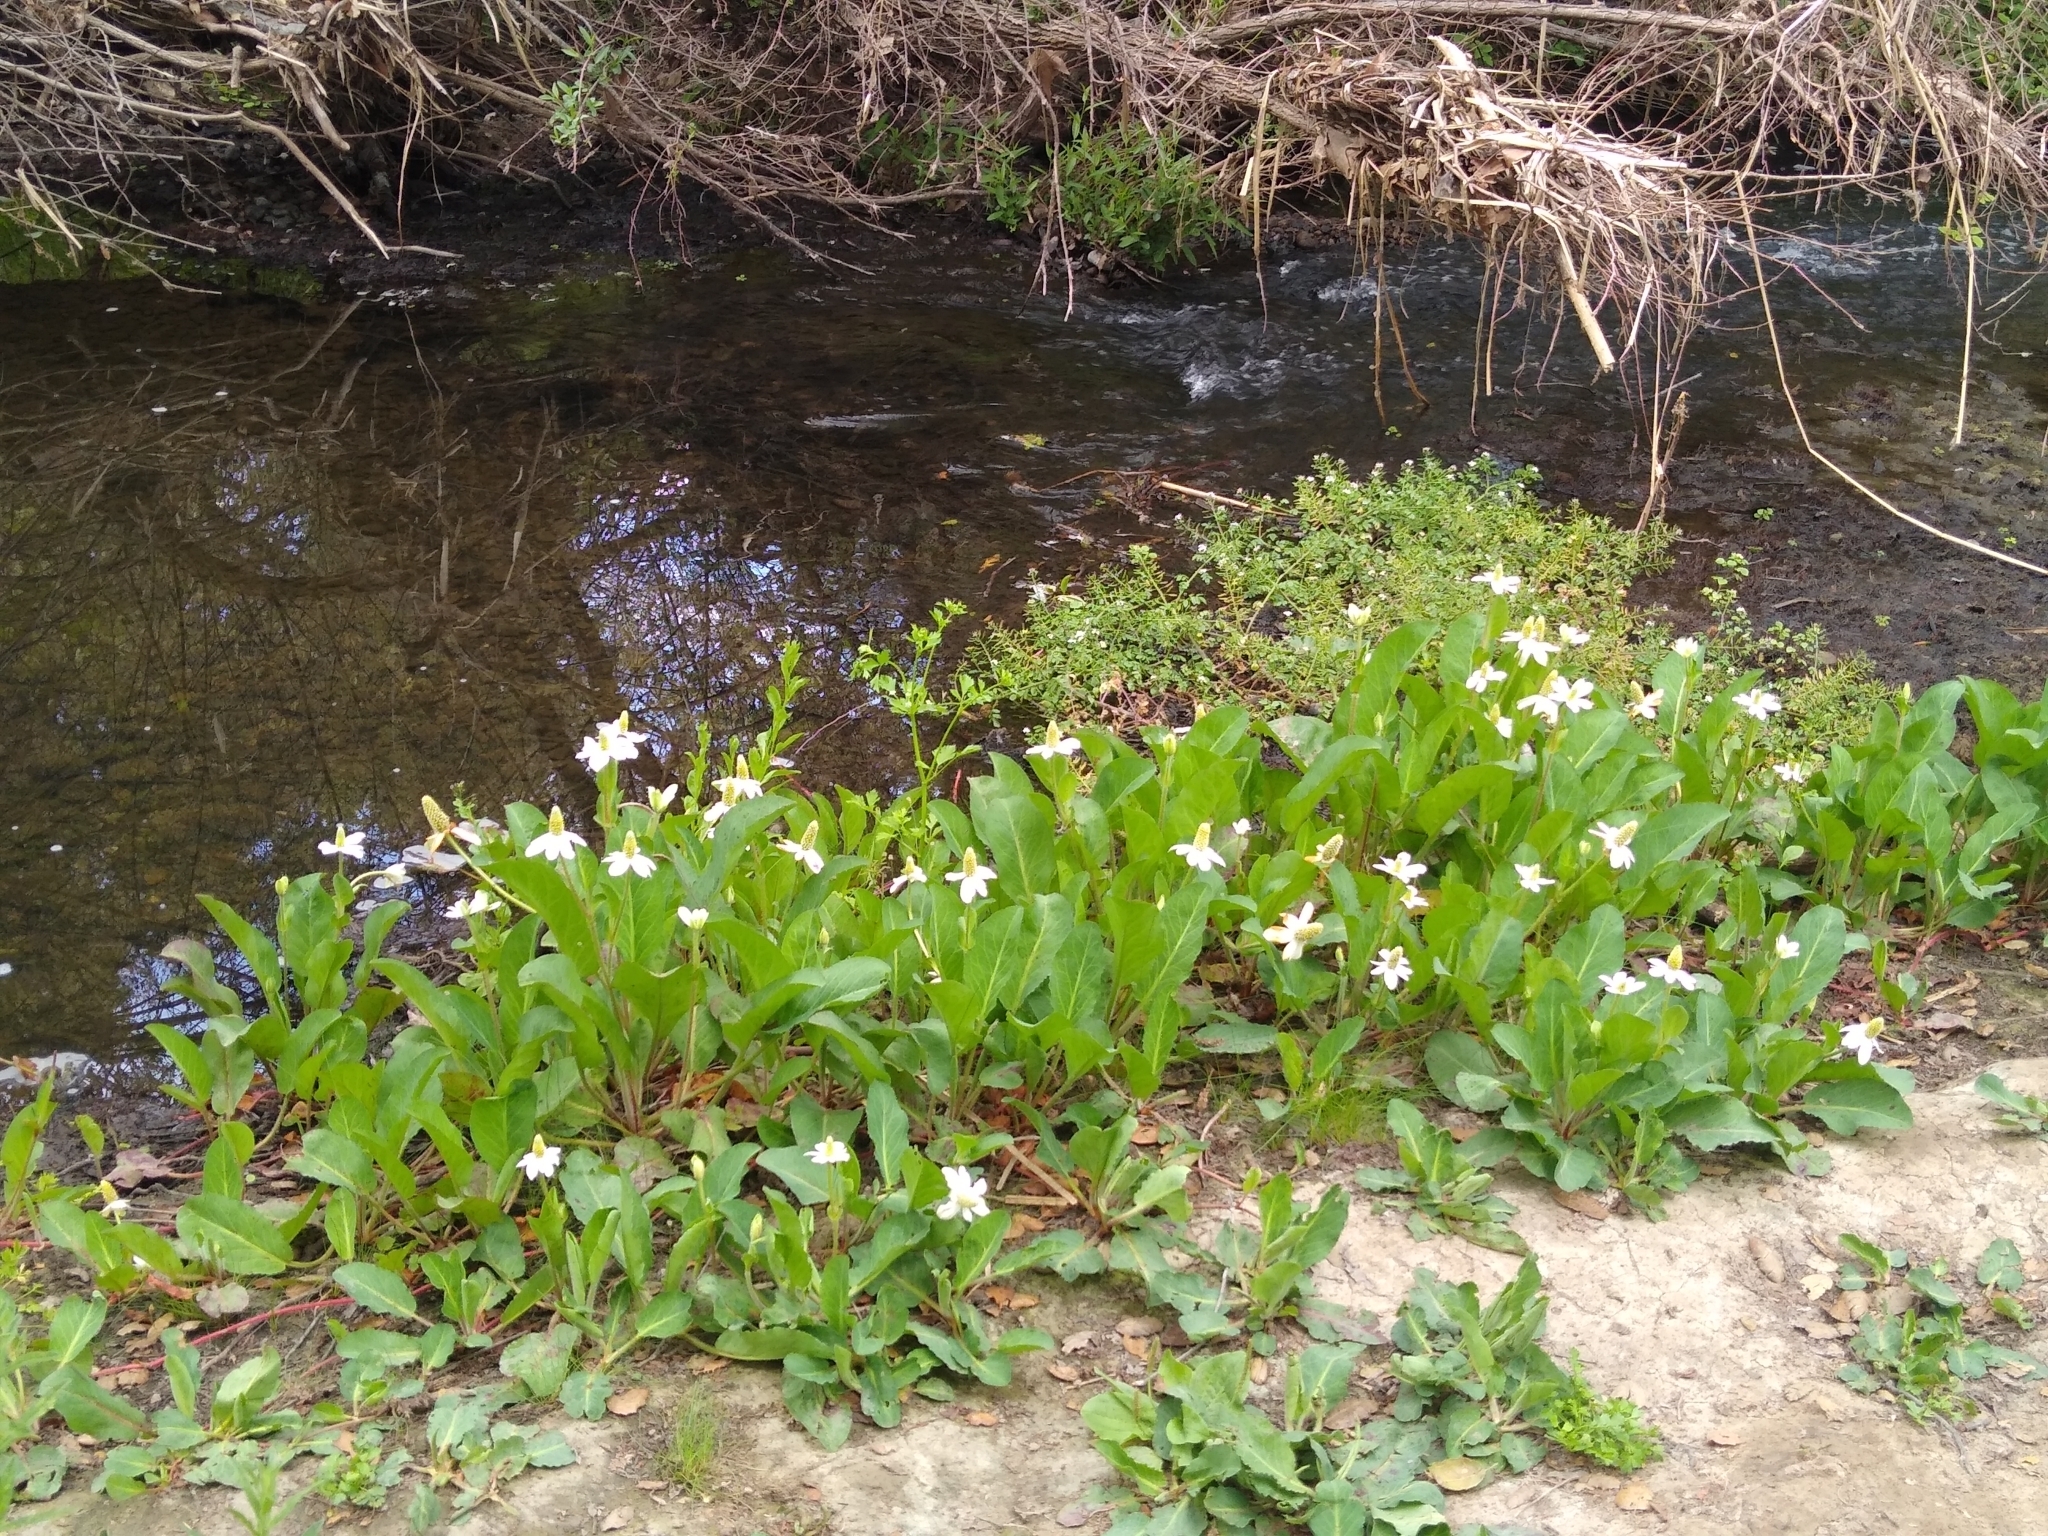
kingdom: Plantae
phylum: Tracheophyta
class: Magnoliopsida
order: Piperales
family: Saururaceae
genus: Anemopsis
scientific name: Anemopsis californica
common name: Apache-beads
